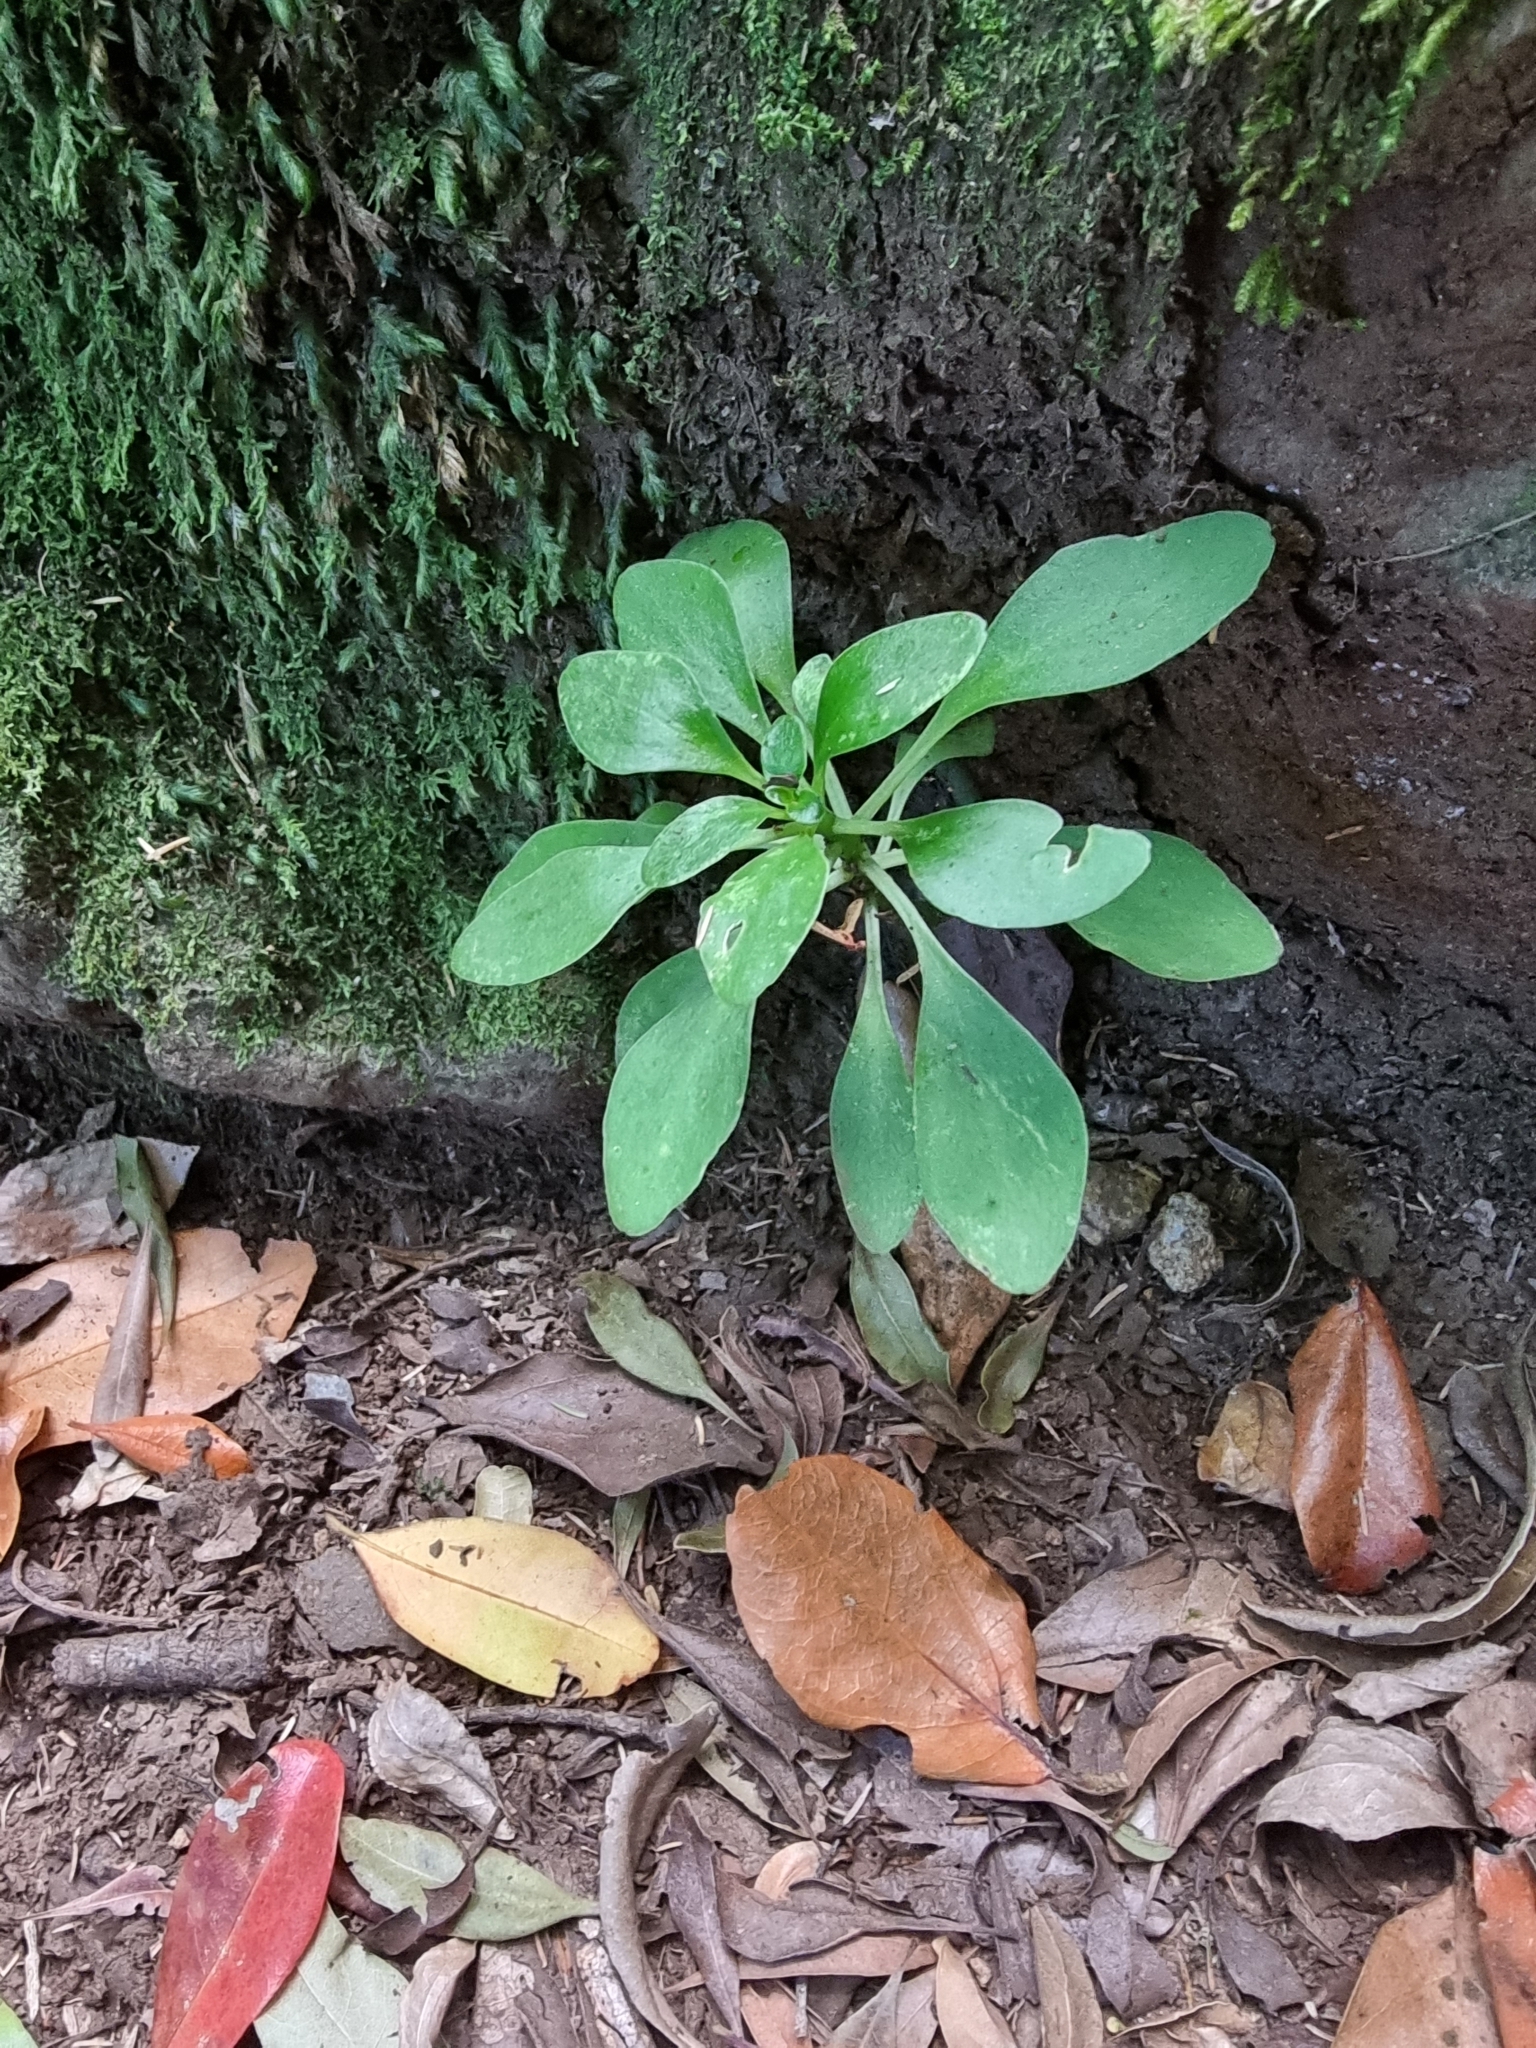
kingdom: Plantae
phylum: Tracheophyta
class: Magnoliopsida
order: Saxifragales
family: Crassulaceae
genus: Aichryson
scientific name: Aichryson divaricatum
